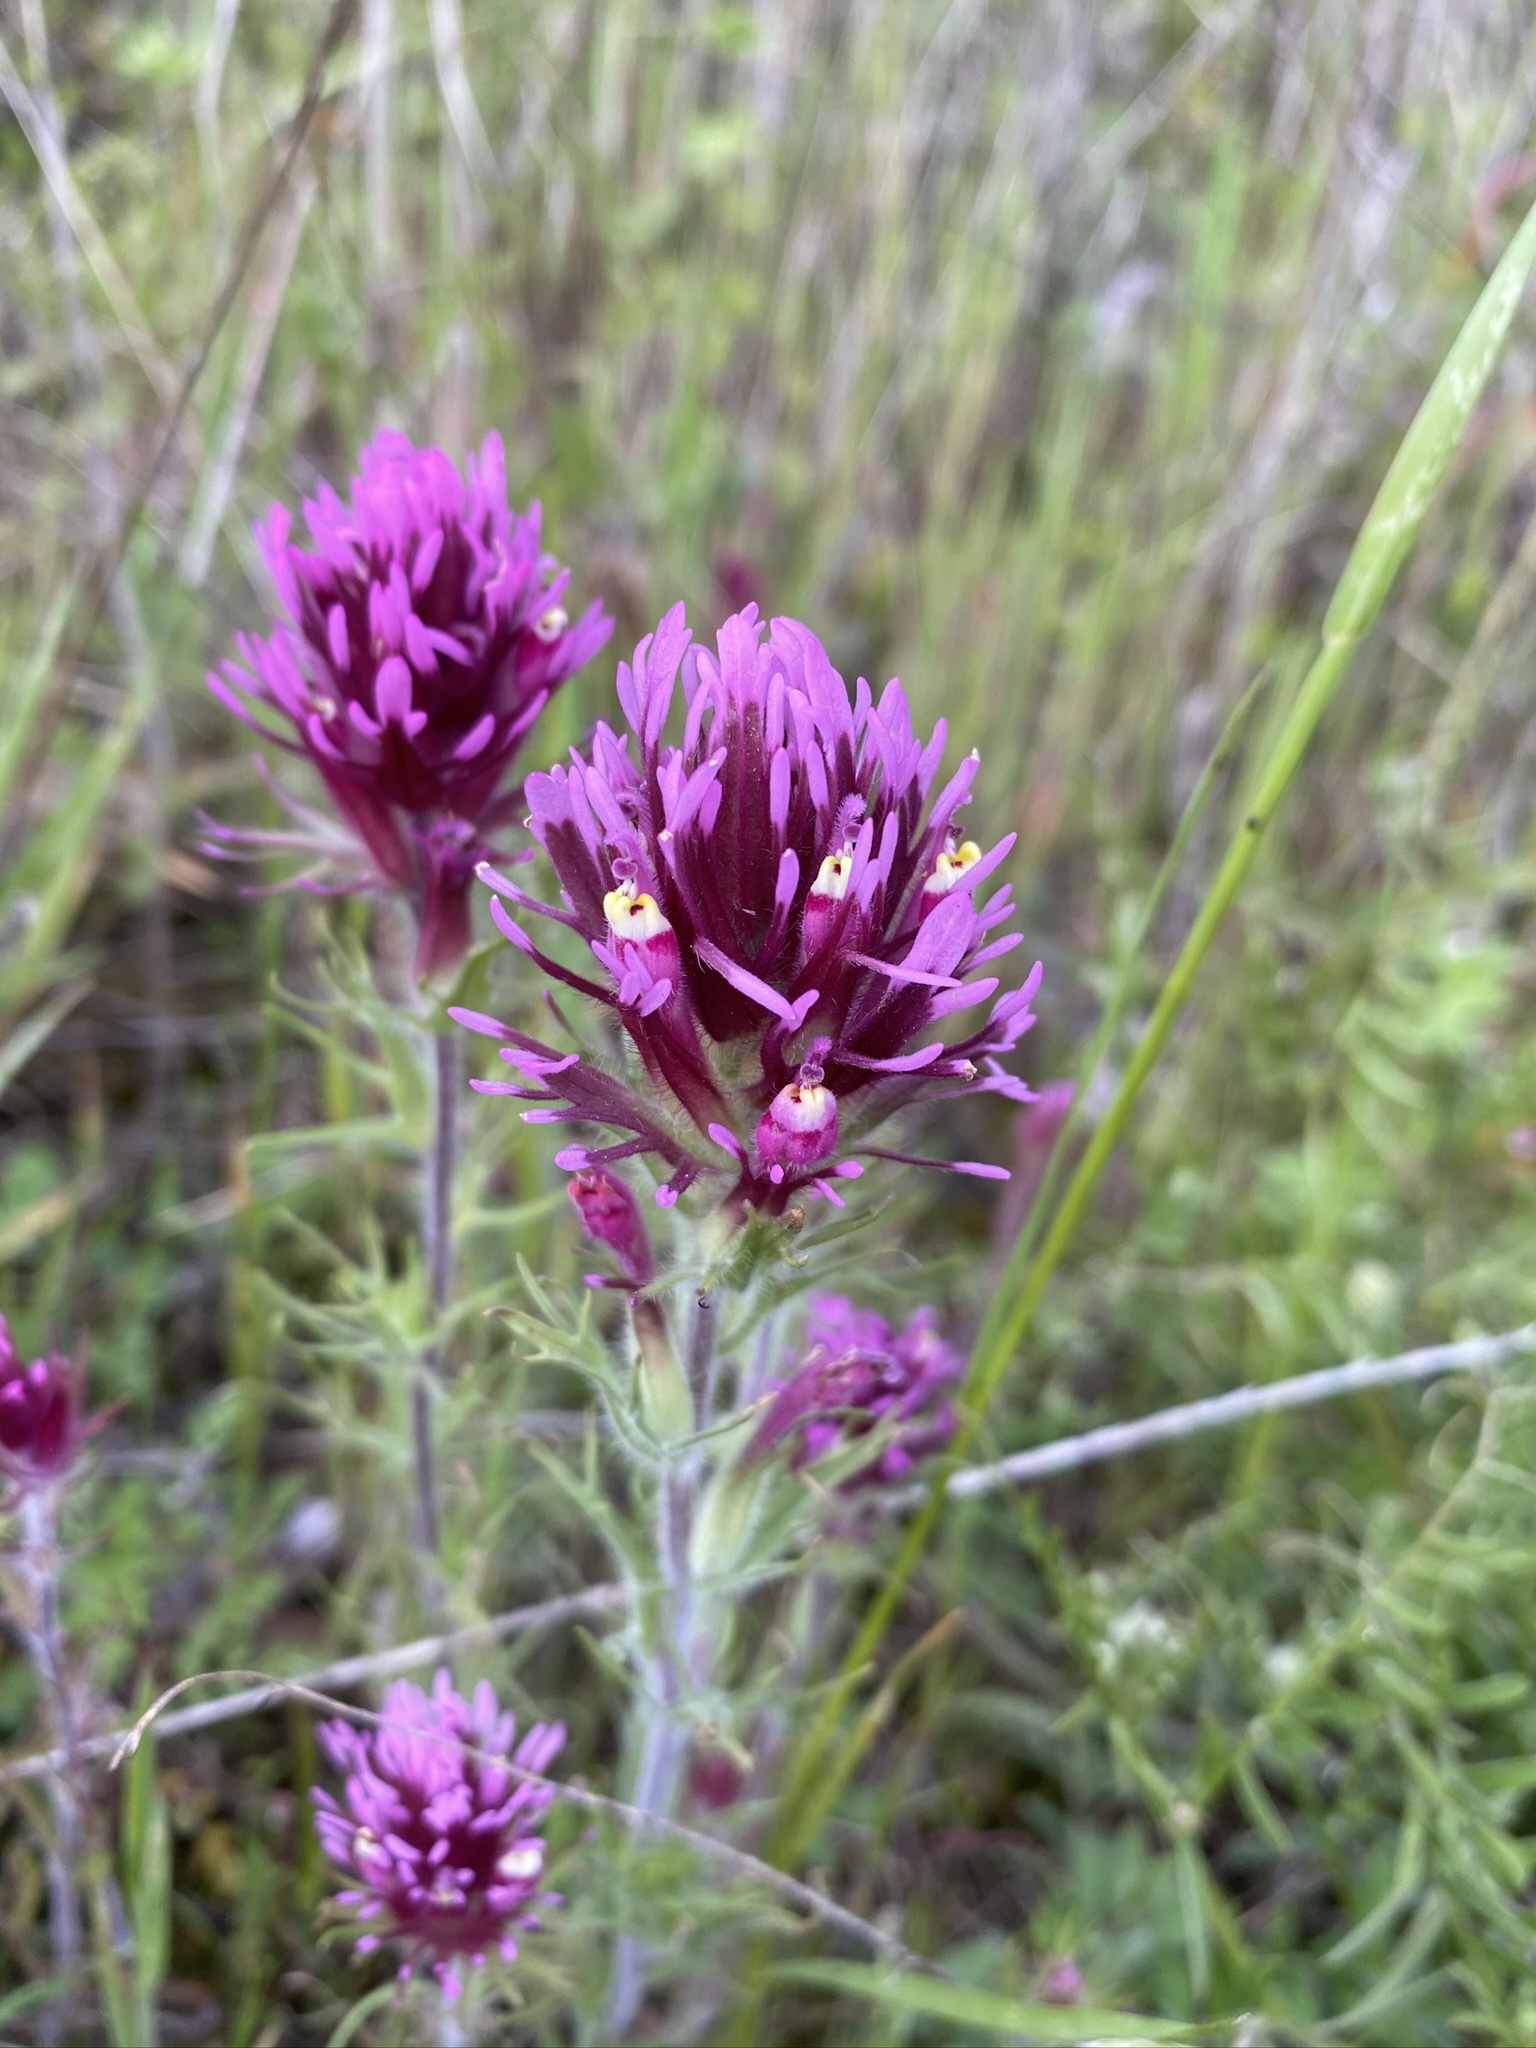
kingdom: Plantae
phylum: Tracheophyta
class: Magnoliopsida
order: Lamiales
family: Orobanchaceae
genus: Castilleja
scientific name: Castilleja exserta
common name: Purple owl-clover
